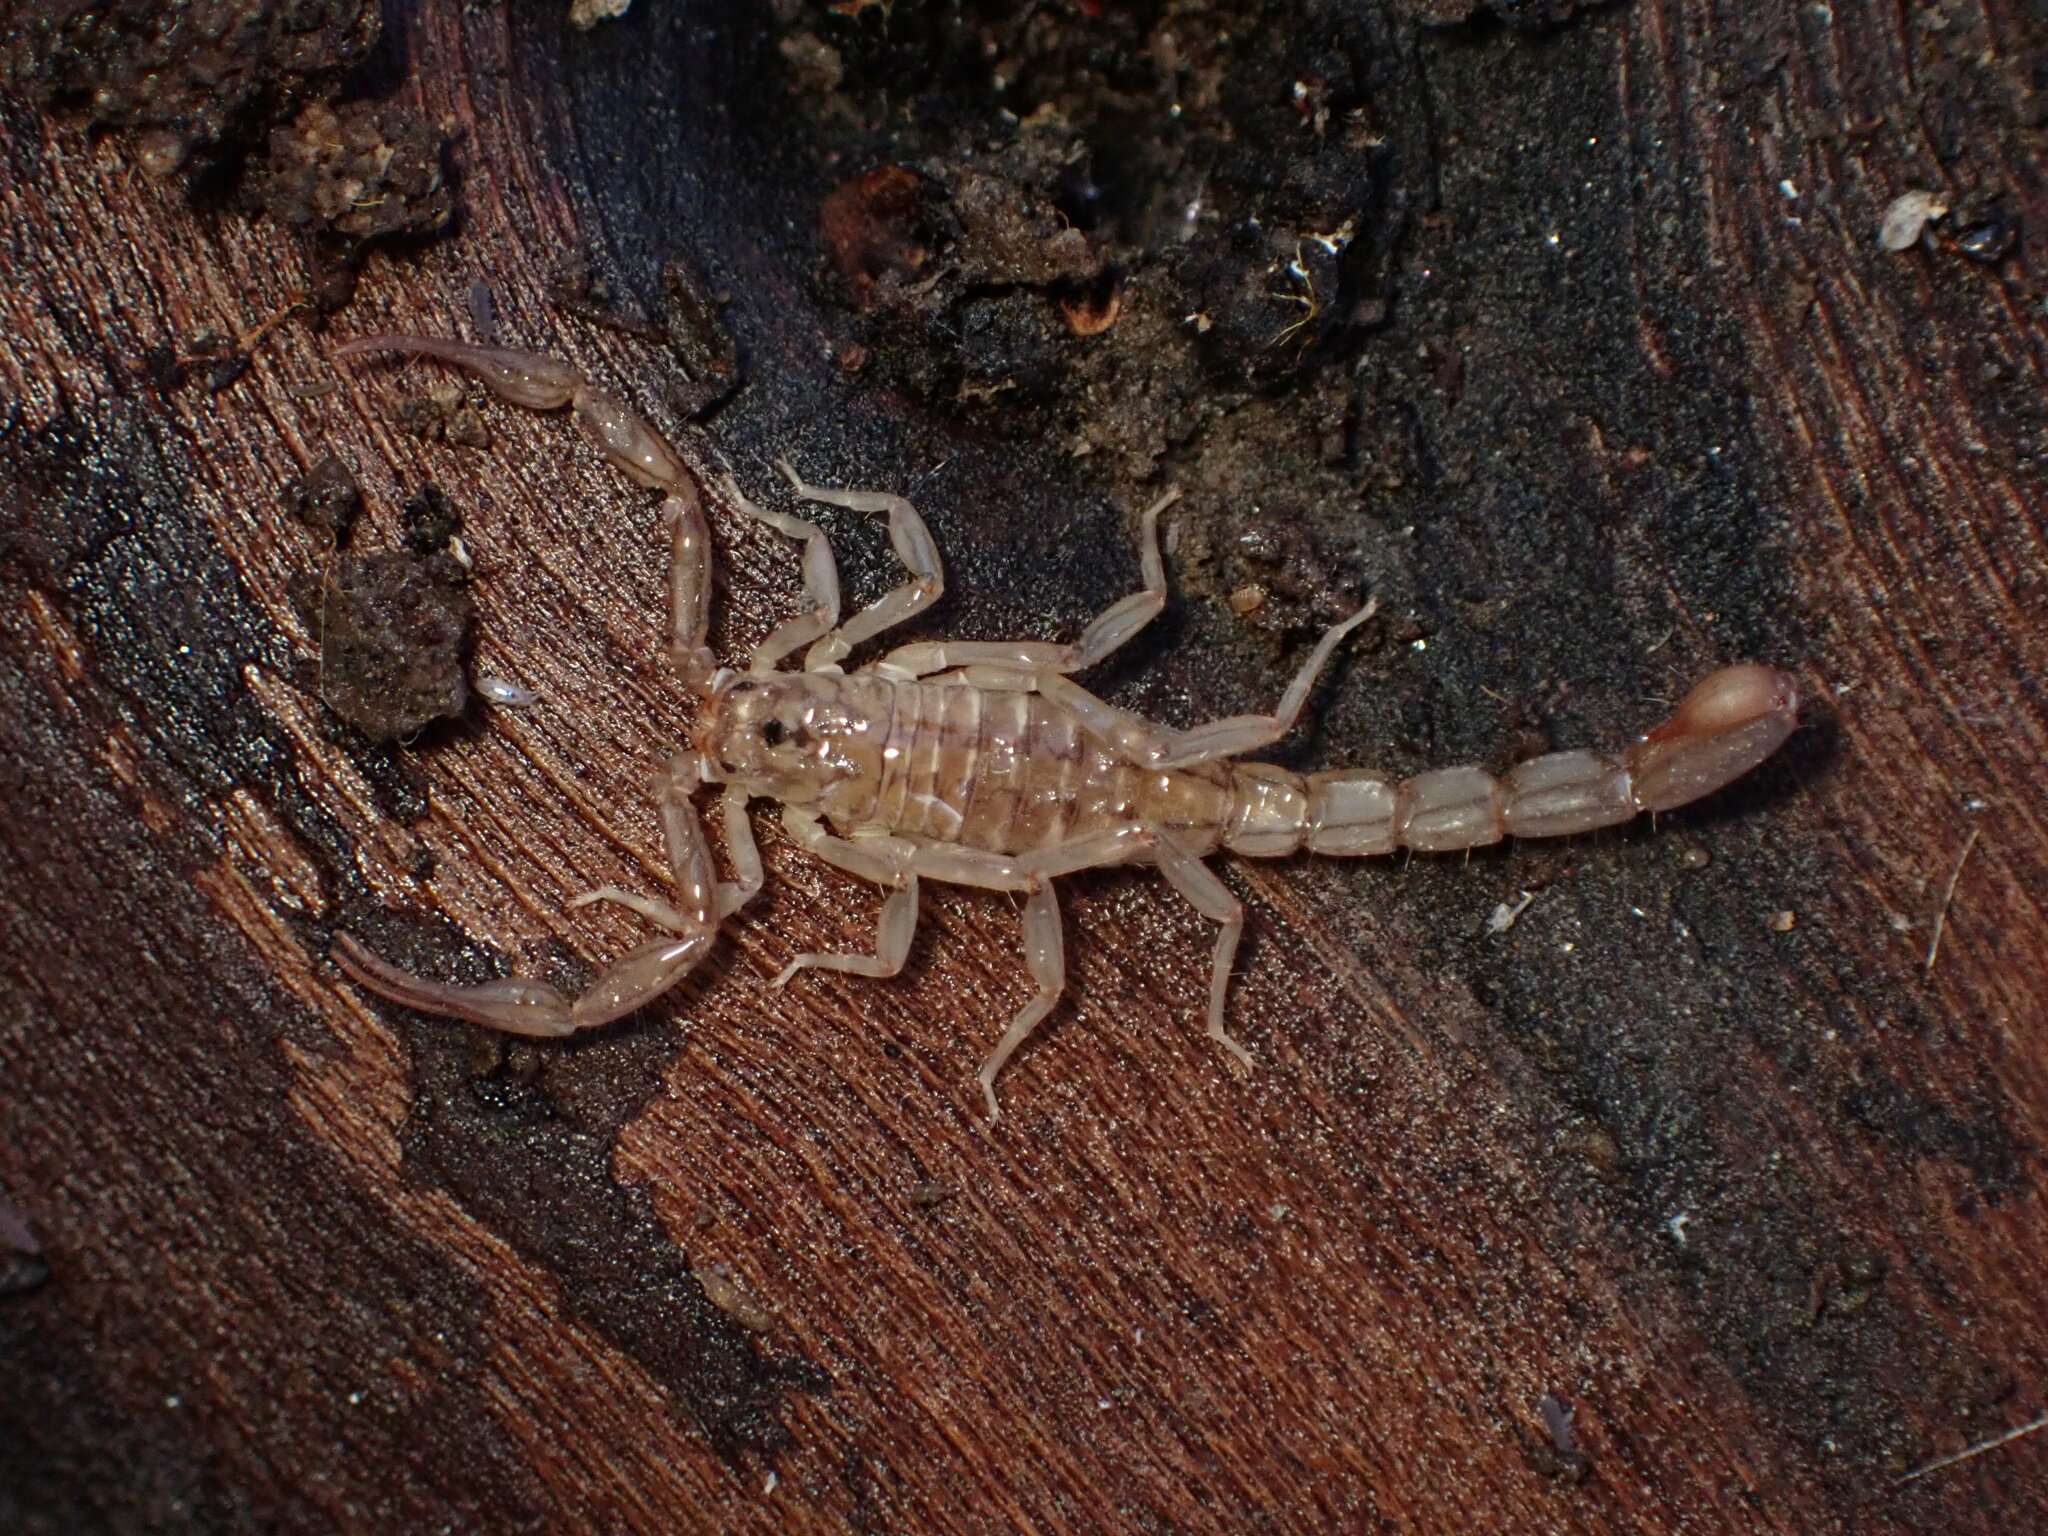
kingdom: Animalia
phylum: Arthropoda
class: Arachnida
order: Scorpiones
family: Vaejovidae
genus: Serradigitus
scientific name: Serradigitus gertschi
